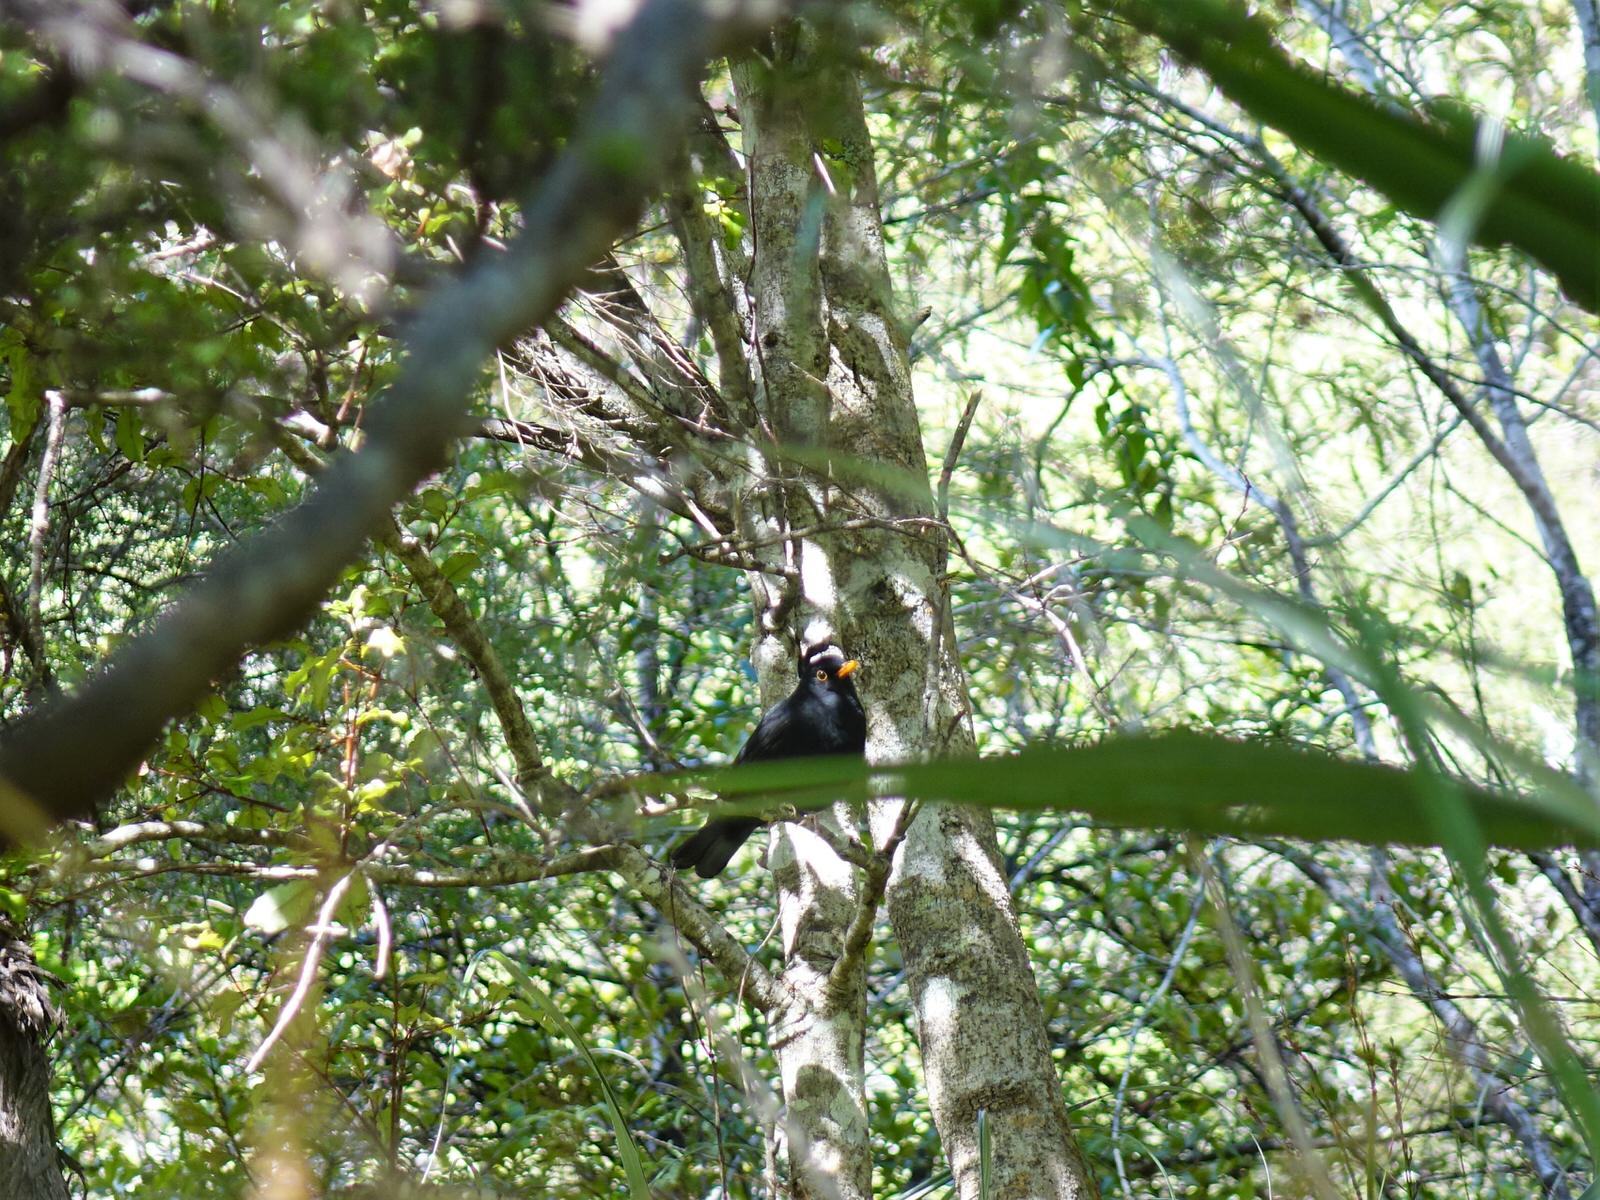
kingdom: Animalia
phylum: Chordata
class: Aves
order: Passeriformes
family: Turdidae
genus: Turdus
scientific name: Turdus merula
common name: Common blackbird
